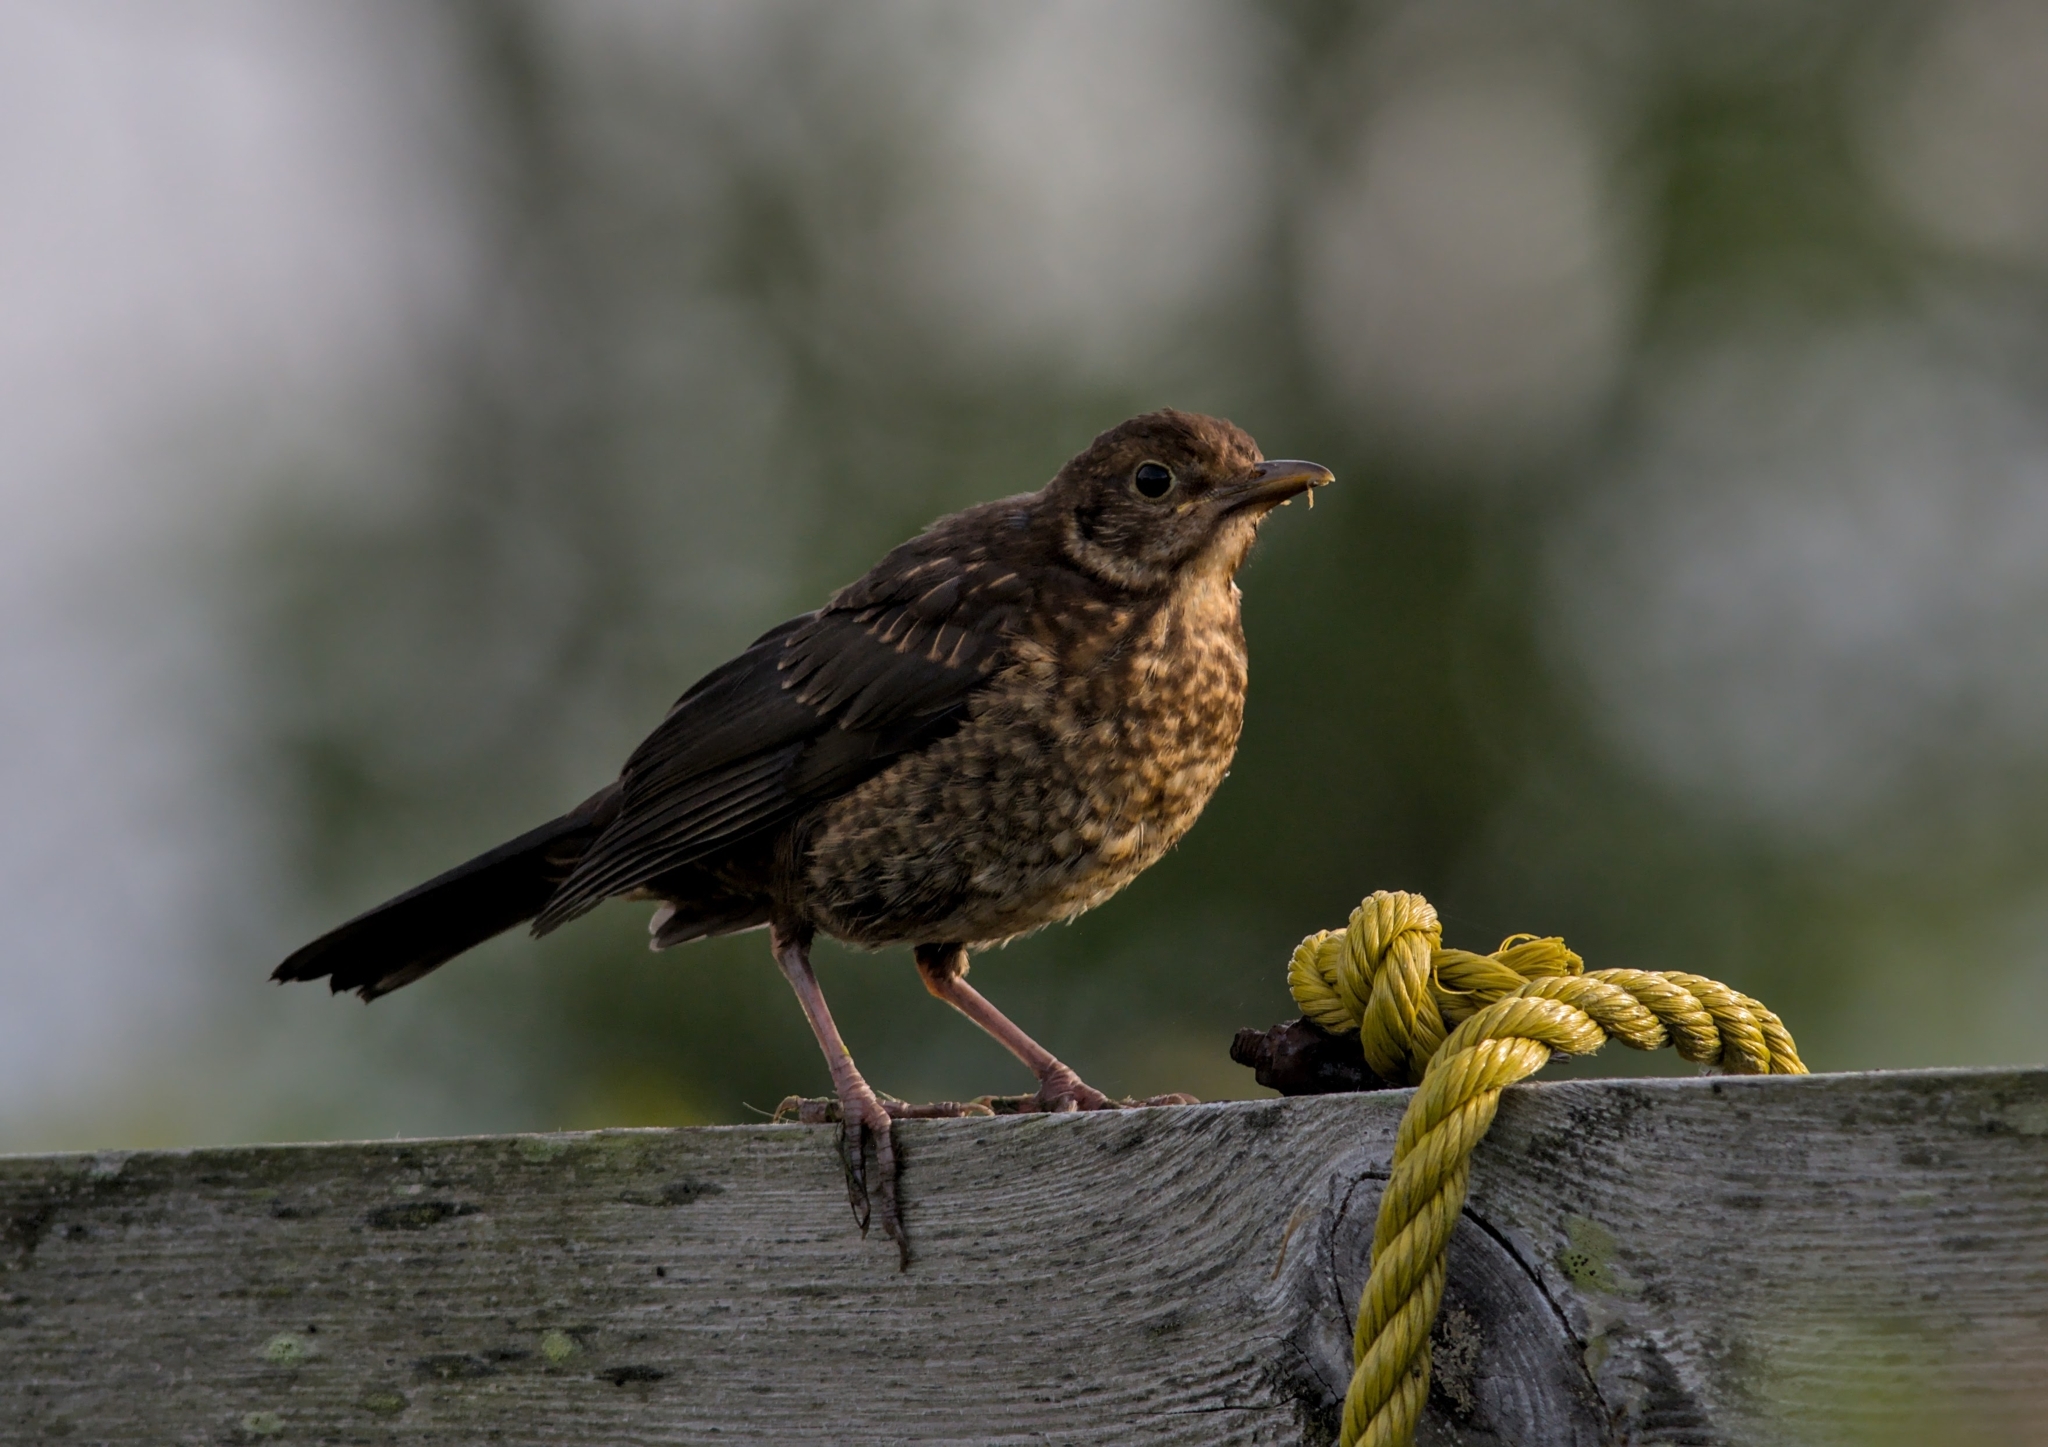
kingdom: Animalia
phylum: Chordata
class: Aves
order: Passeriformes
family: Turdidae
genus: Turdus
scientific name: Turdus merula
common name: Common blackbird
